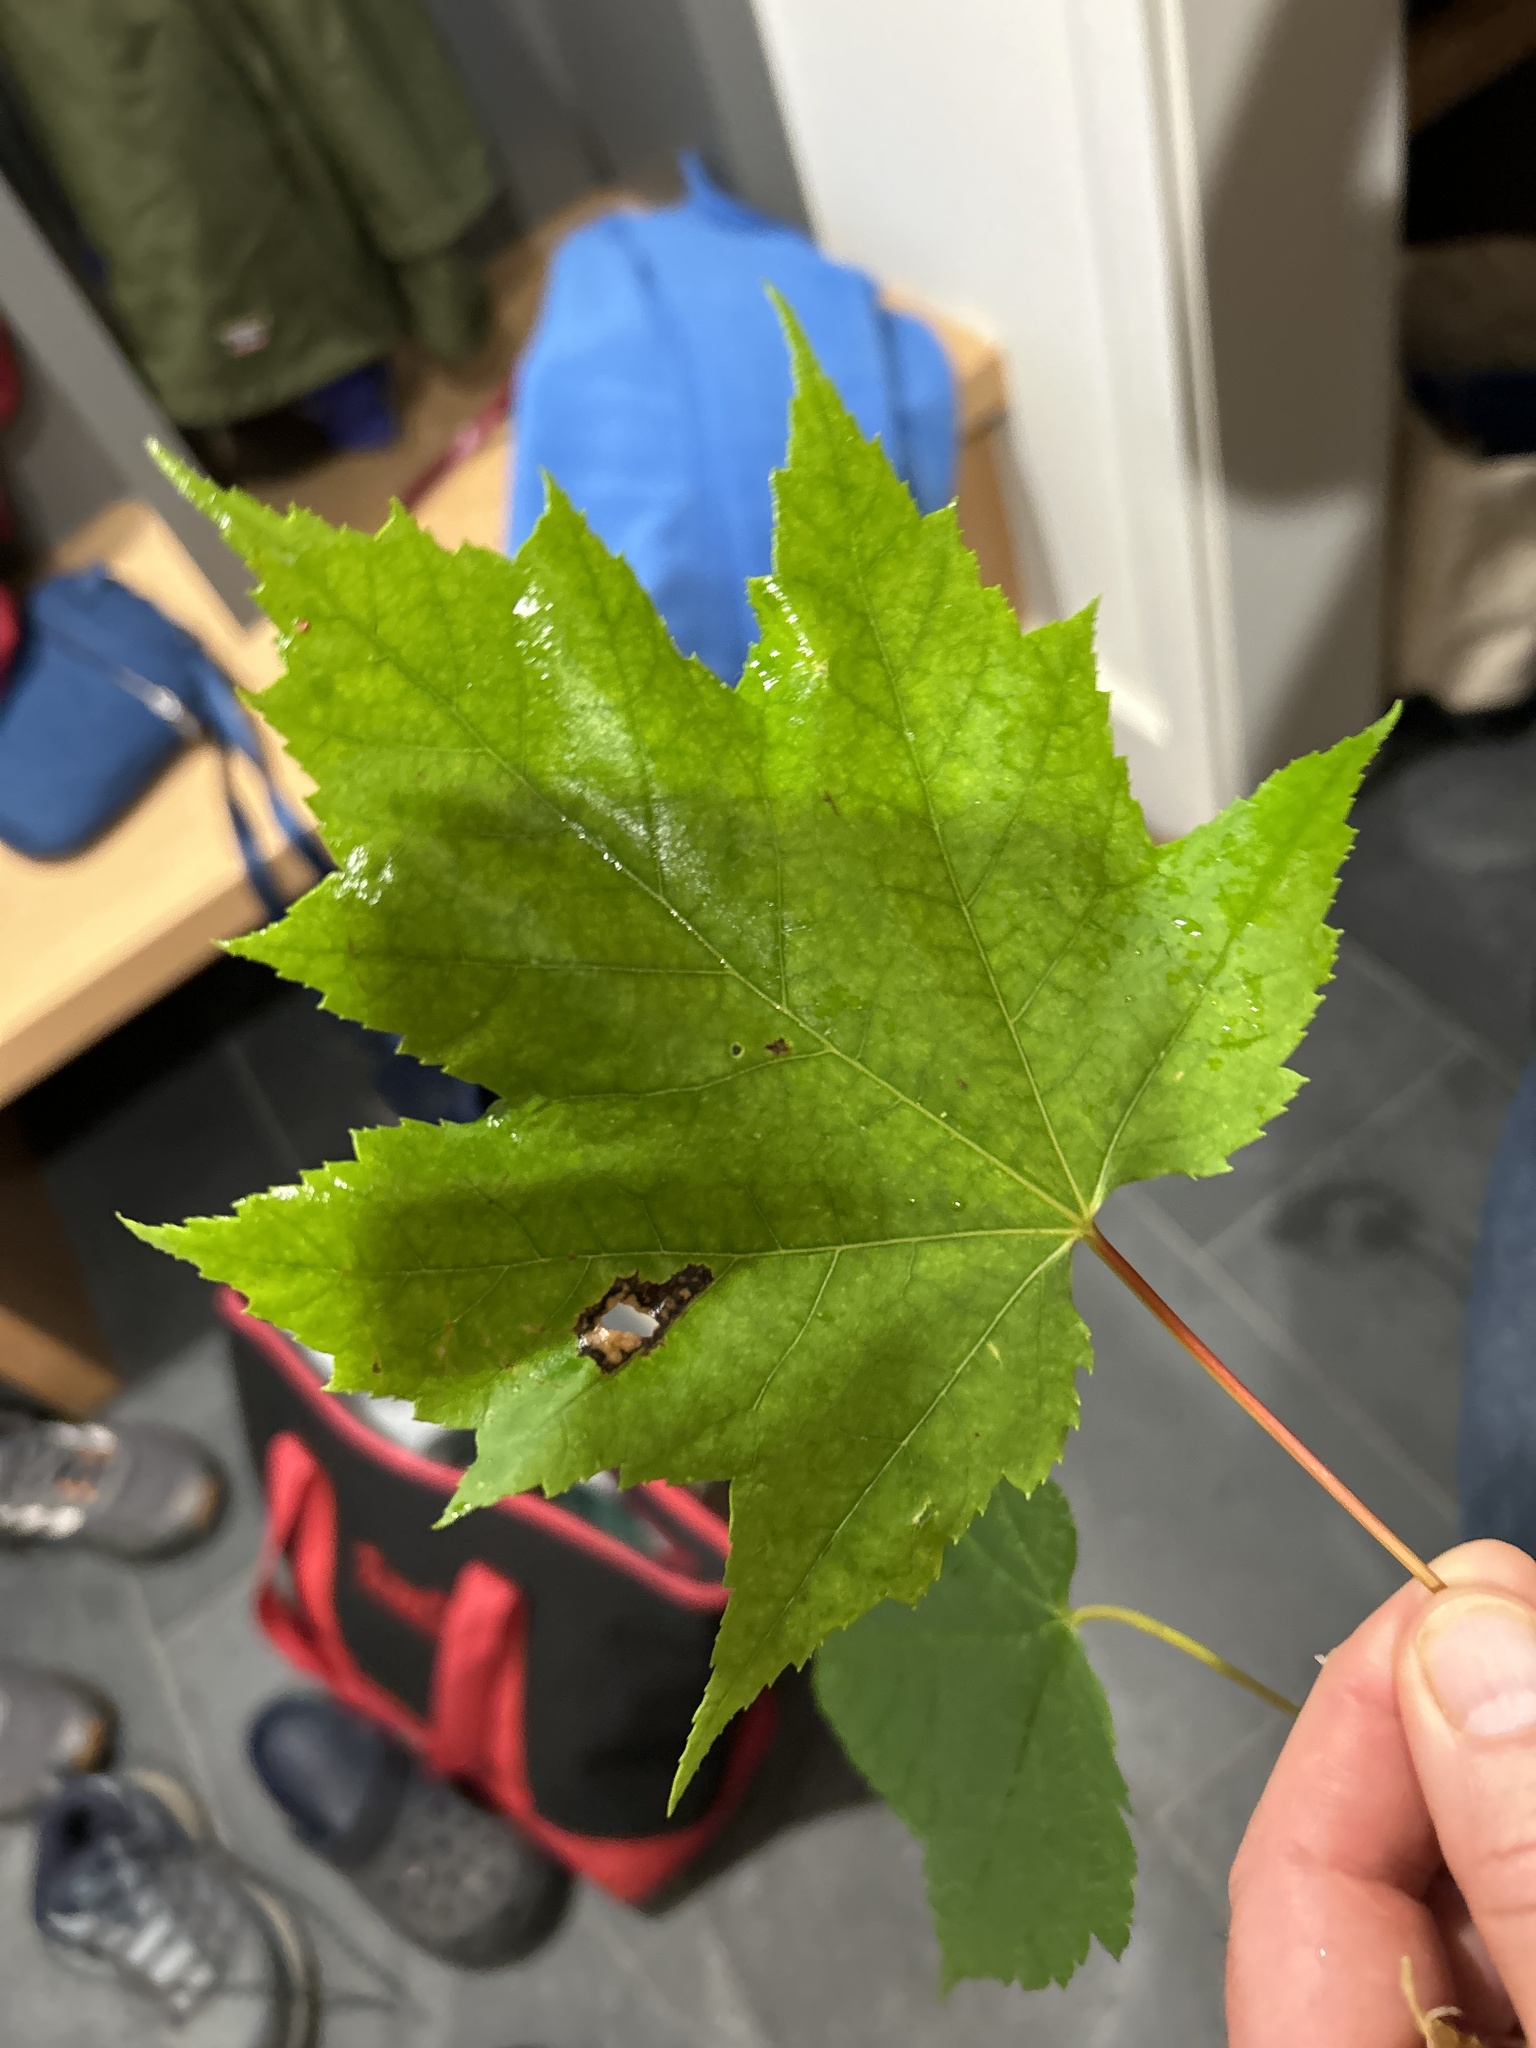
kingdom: Plantae
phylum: Tracheophyta
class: Magnoliopsida
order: Sapindales
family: Sapindaceae
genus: Acer
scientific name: Acer rubrum
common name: Red maple
